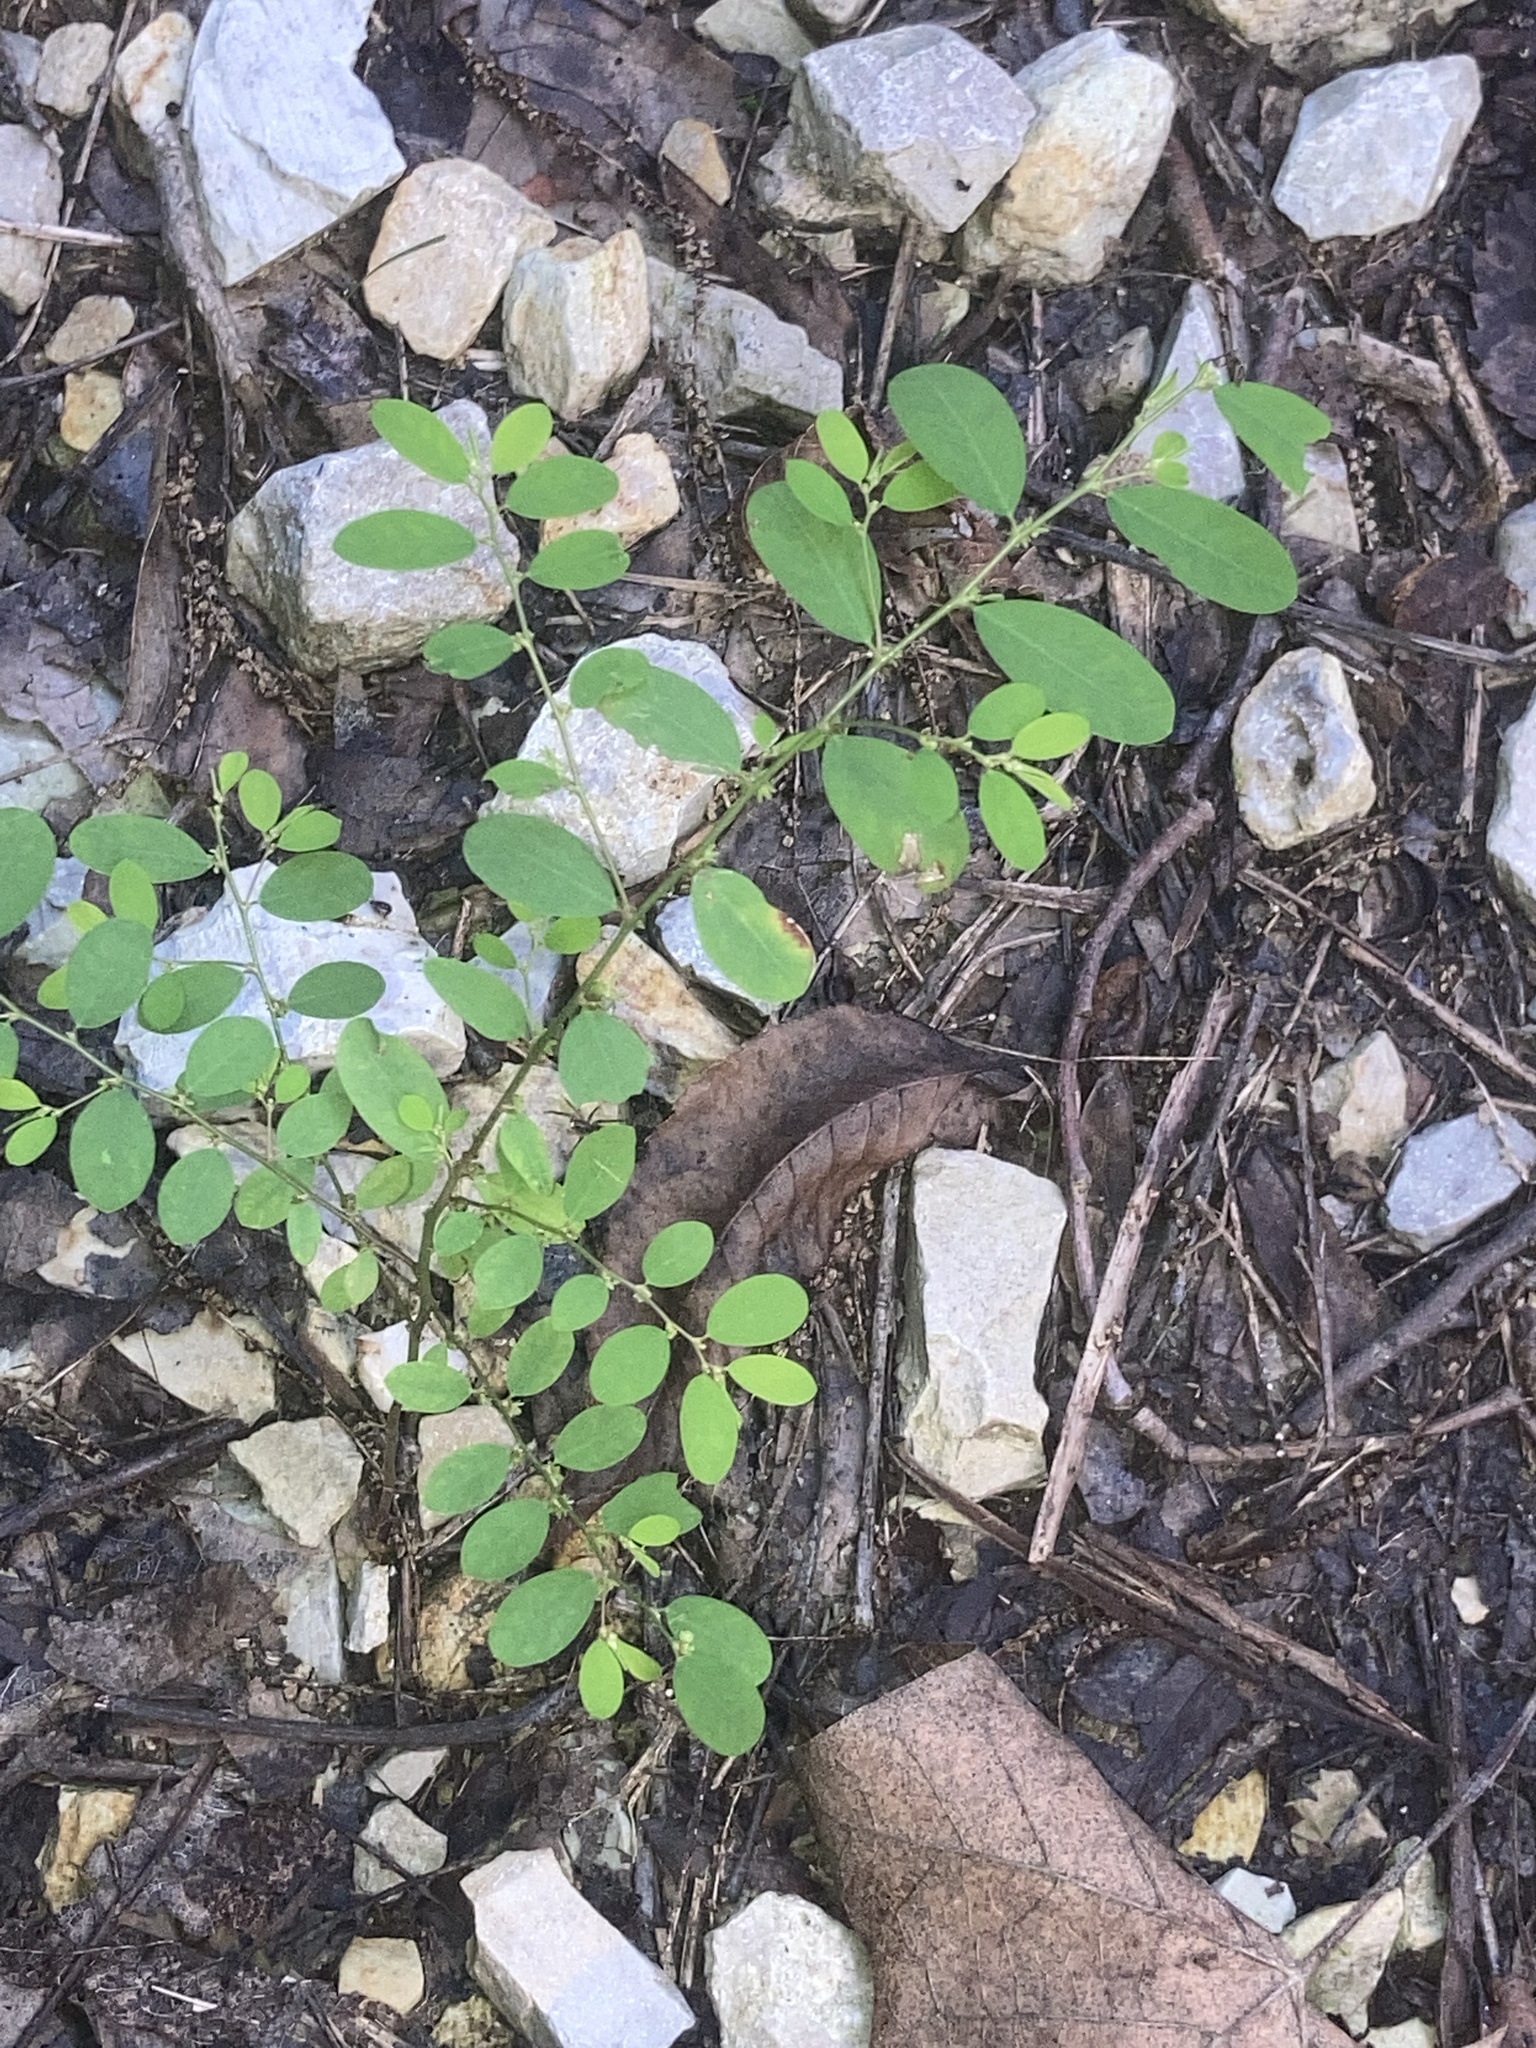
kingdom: Plantae
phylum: Tracheophyta
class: Magnoliopsida
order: Malpighiales
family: Phyllanthaceae
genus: Phyllanthus
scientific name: Phyllanthus caroliniensis
